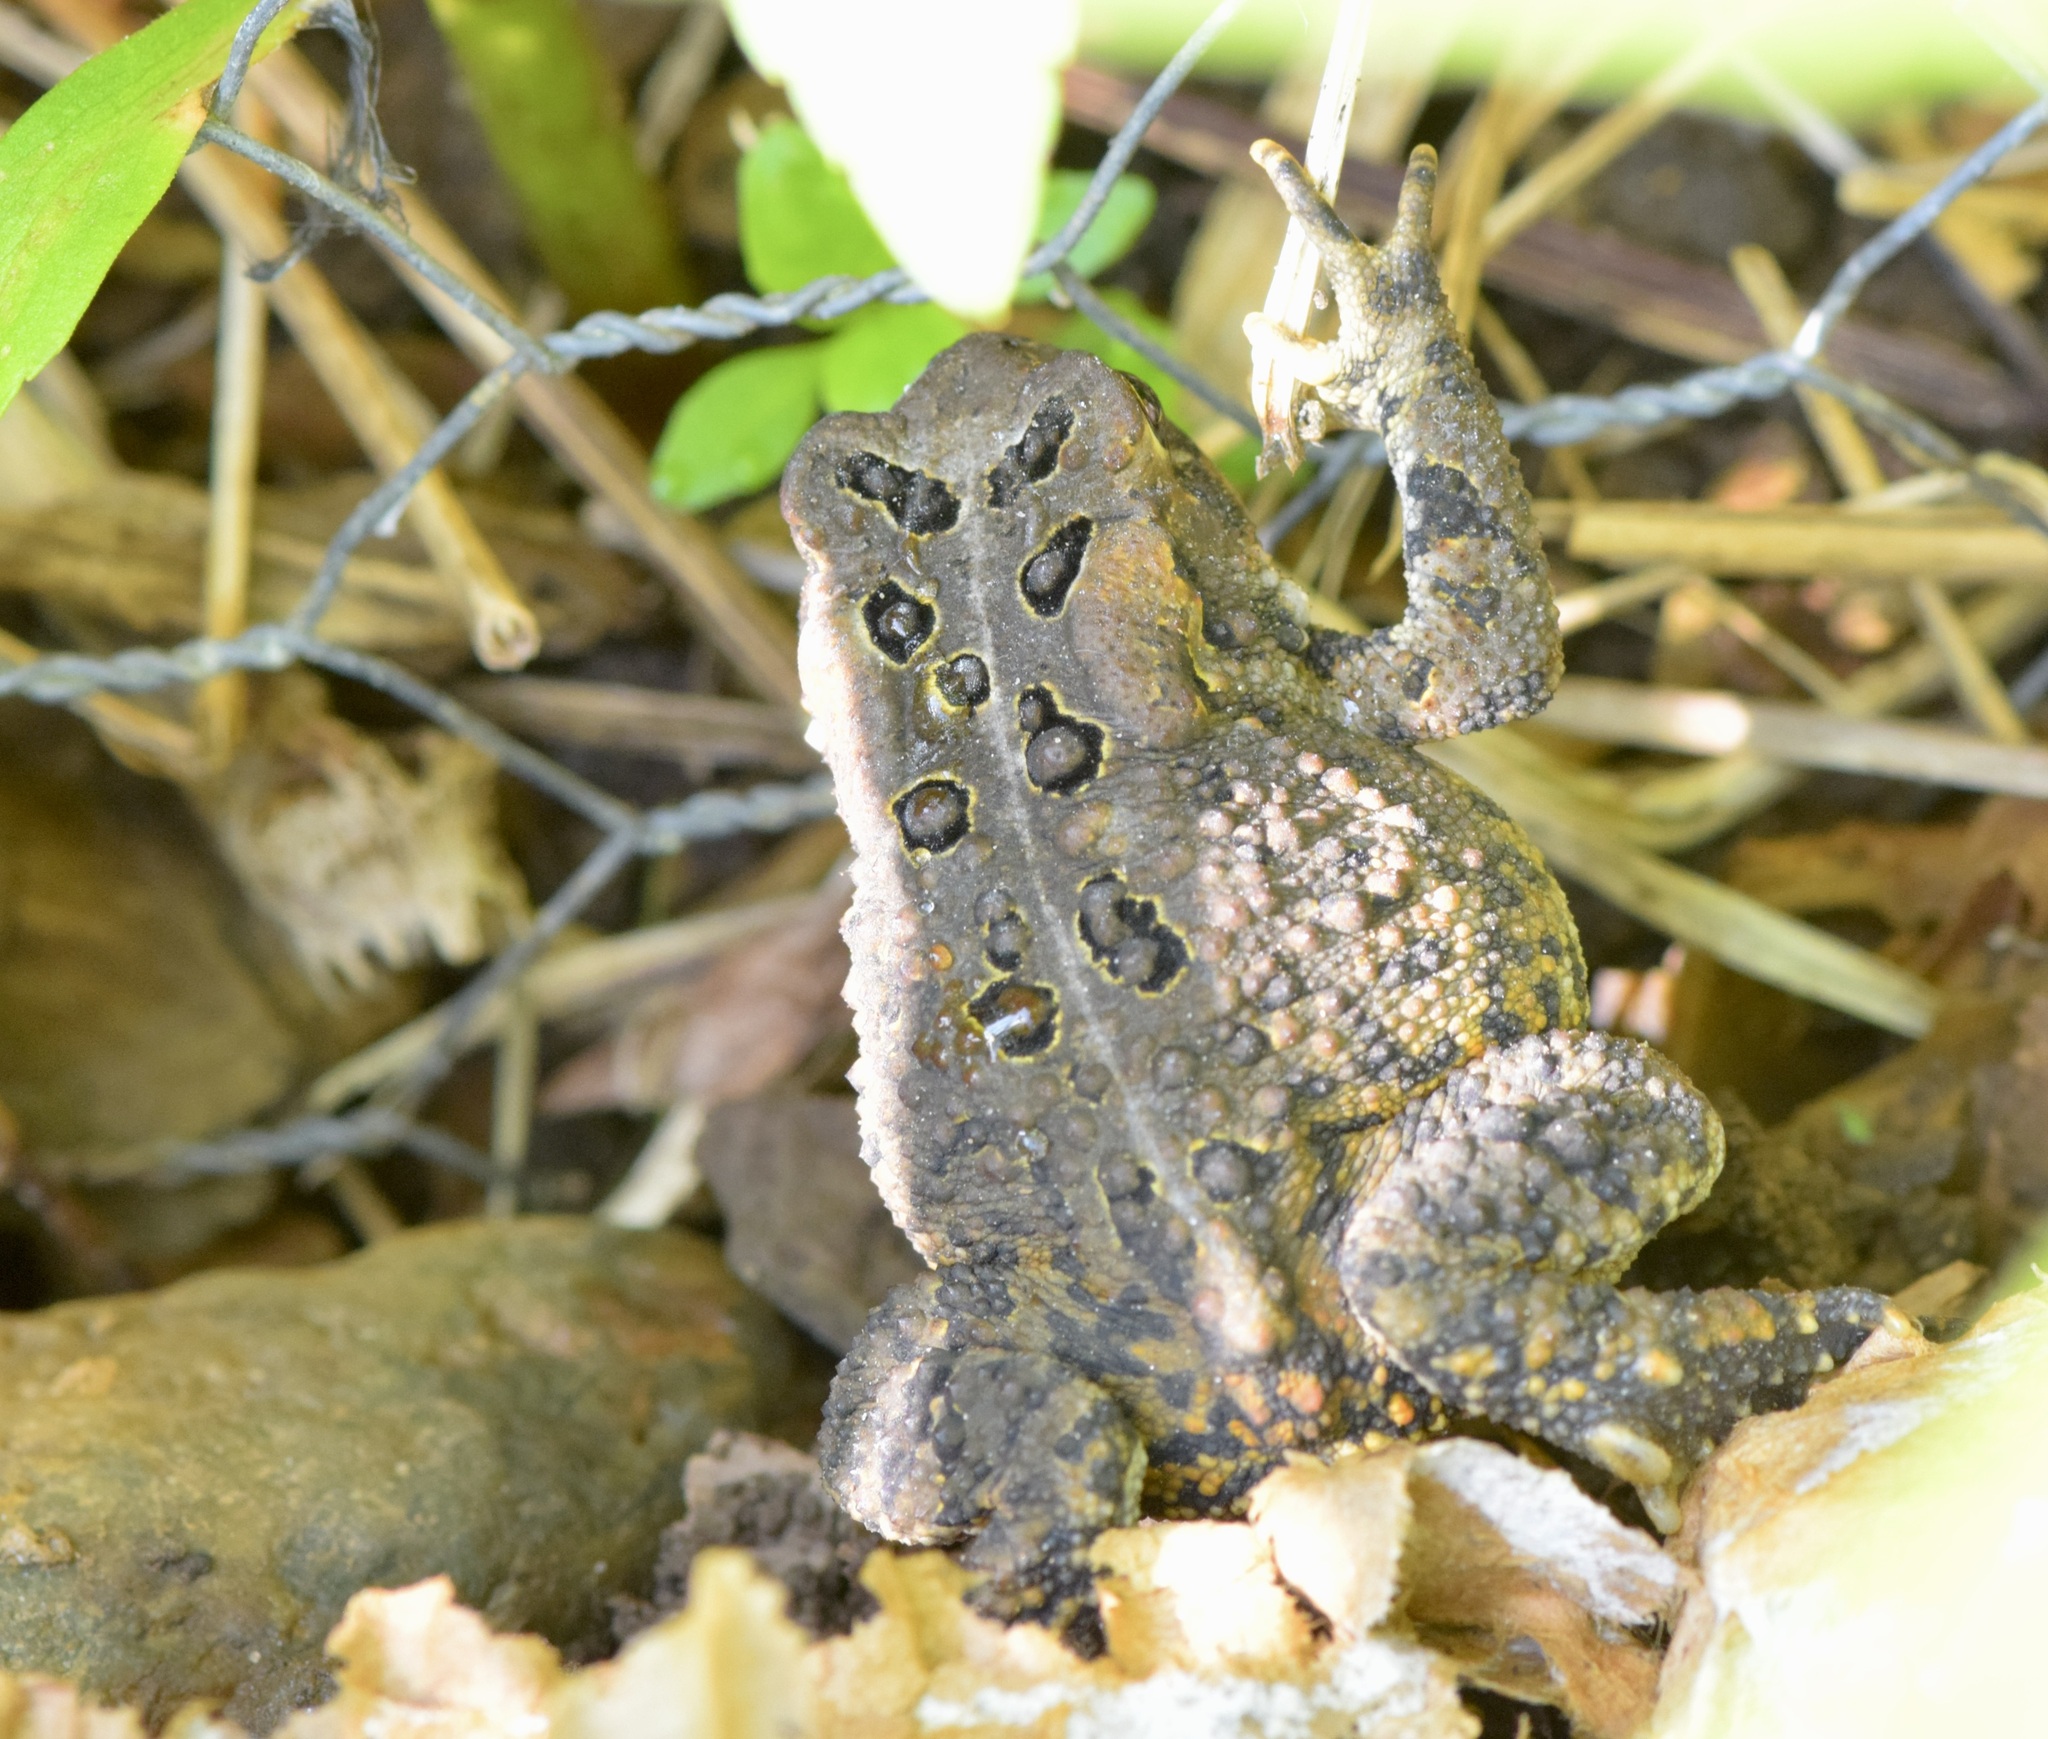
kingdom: Animalia
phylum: Chordata
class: Amphibia
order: Anura
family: Bufonidae
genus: Anaxyrus
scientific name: Anaxyrus americanus
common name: American toad
